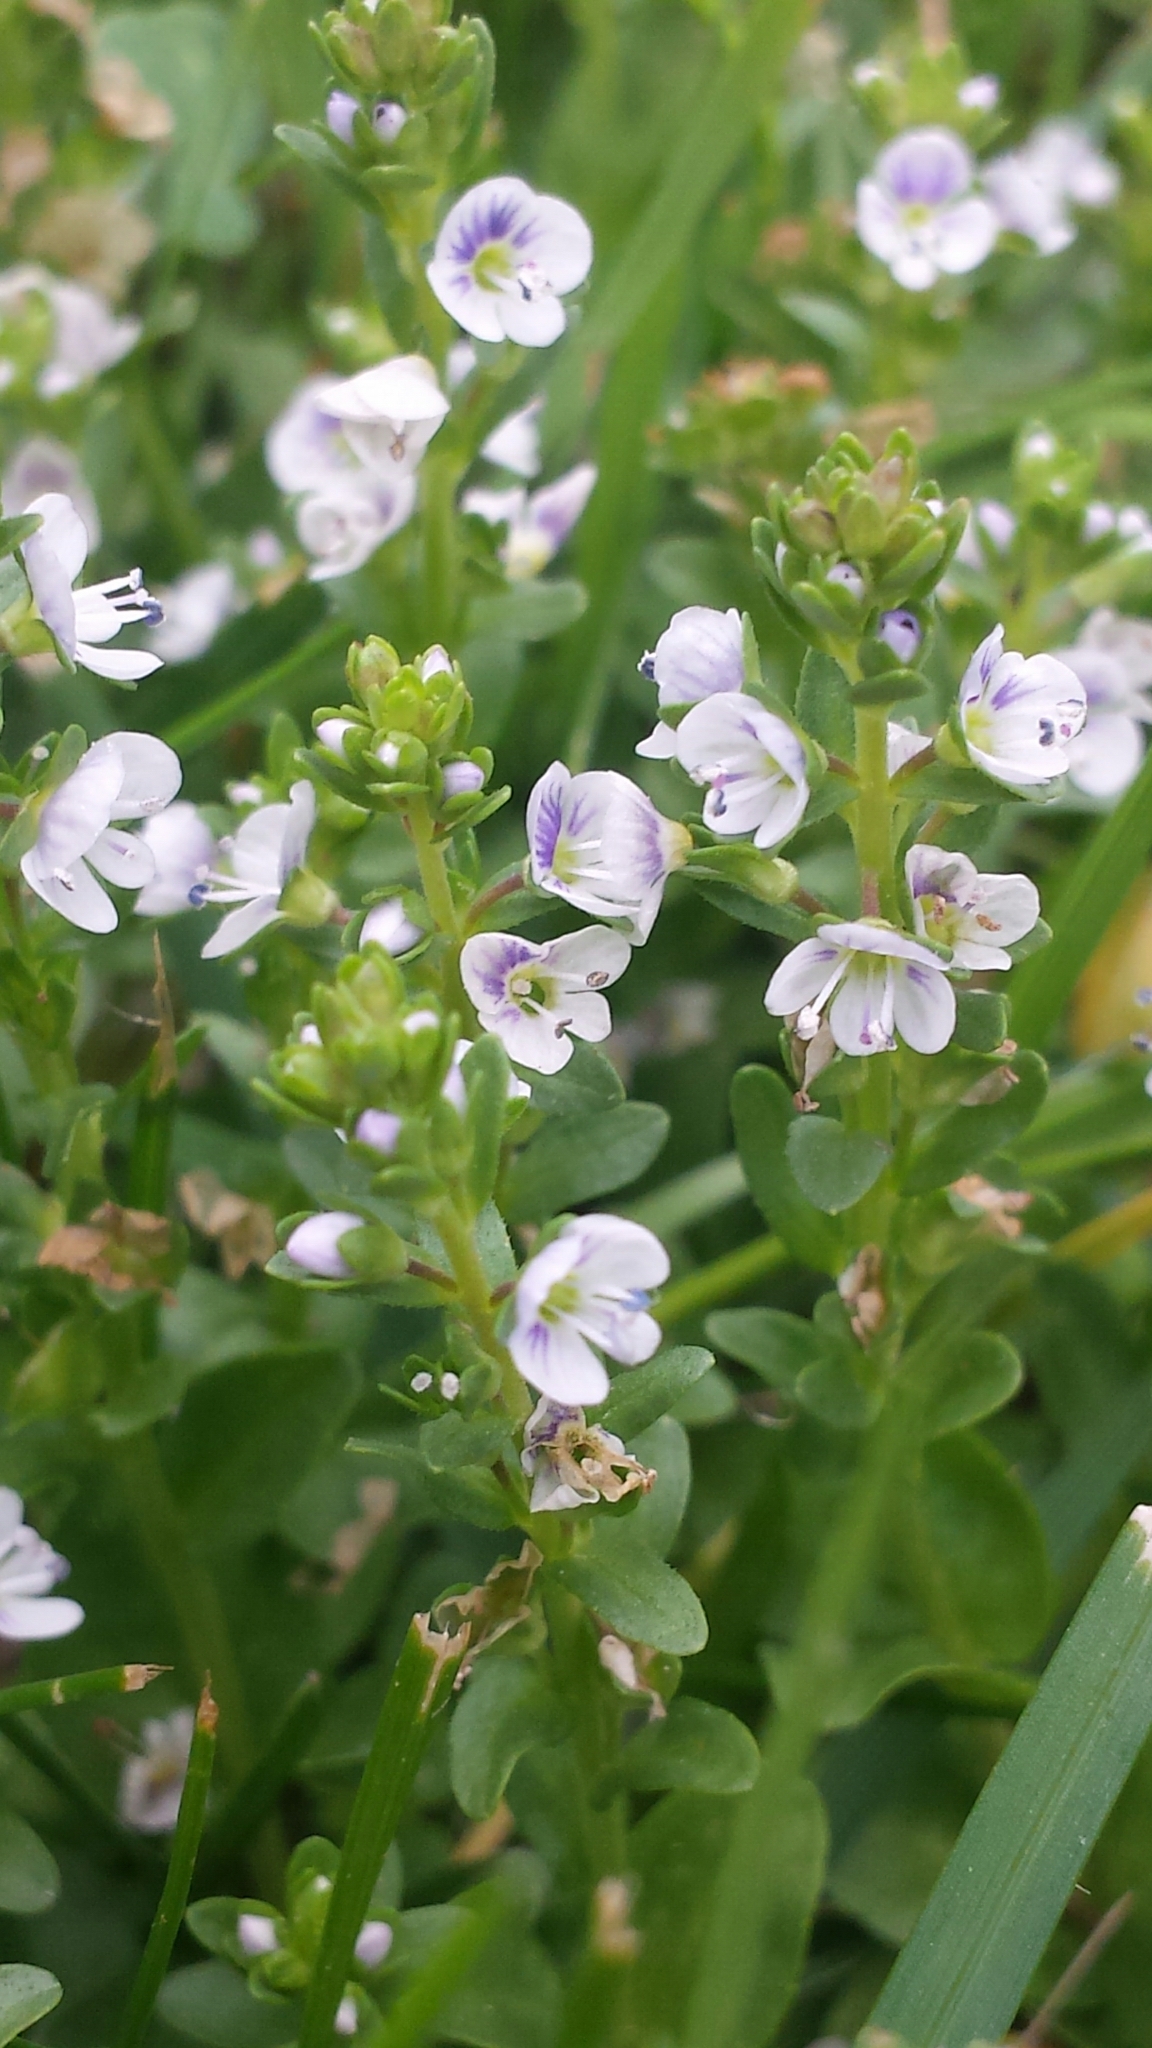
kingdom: Plantae
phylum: Tracheophyta
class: Magnoliopsida
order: Lamiales
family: Plantaginaceae
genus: Veronica
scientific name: Veronica serpyllifolia
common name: Thyme-leaved speedwell
